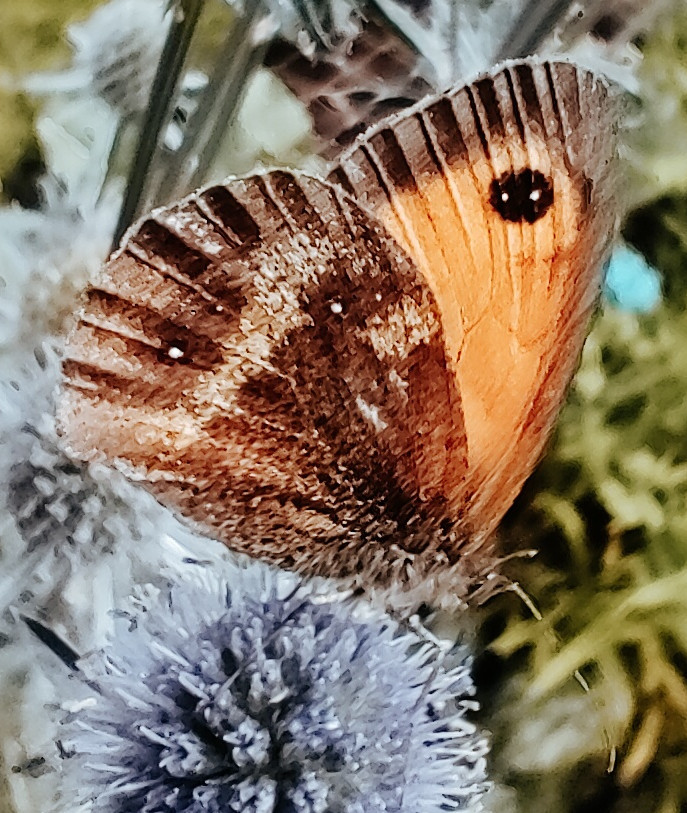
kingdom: Animalia
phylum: Arthropoda
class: Insecta
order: Lepidoptera
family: Nymphalidae
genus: Pyronia
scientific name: Pyronia tithonus
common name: Gatekeeper
